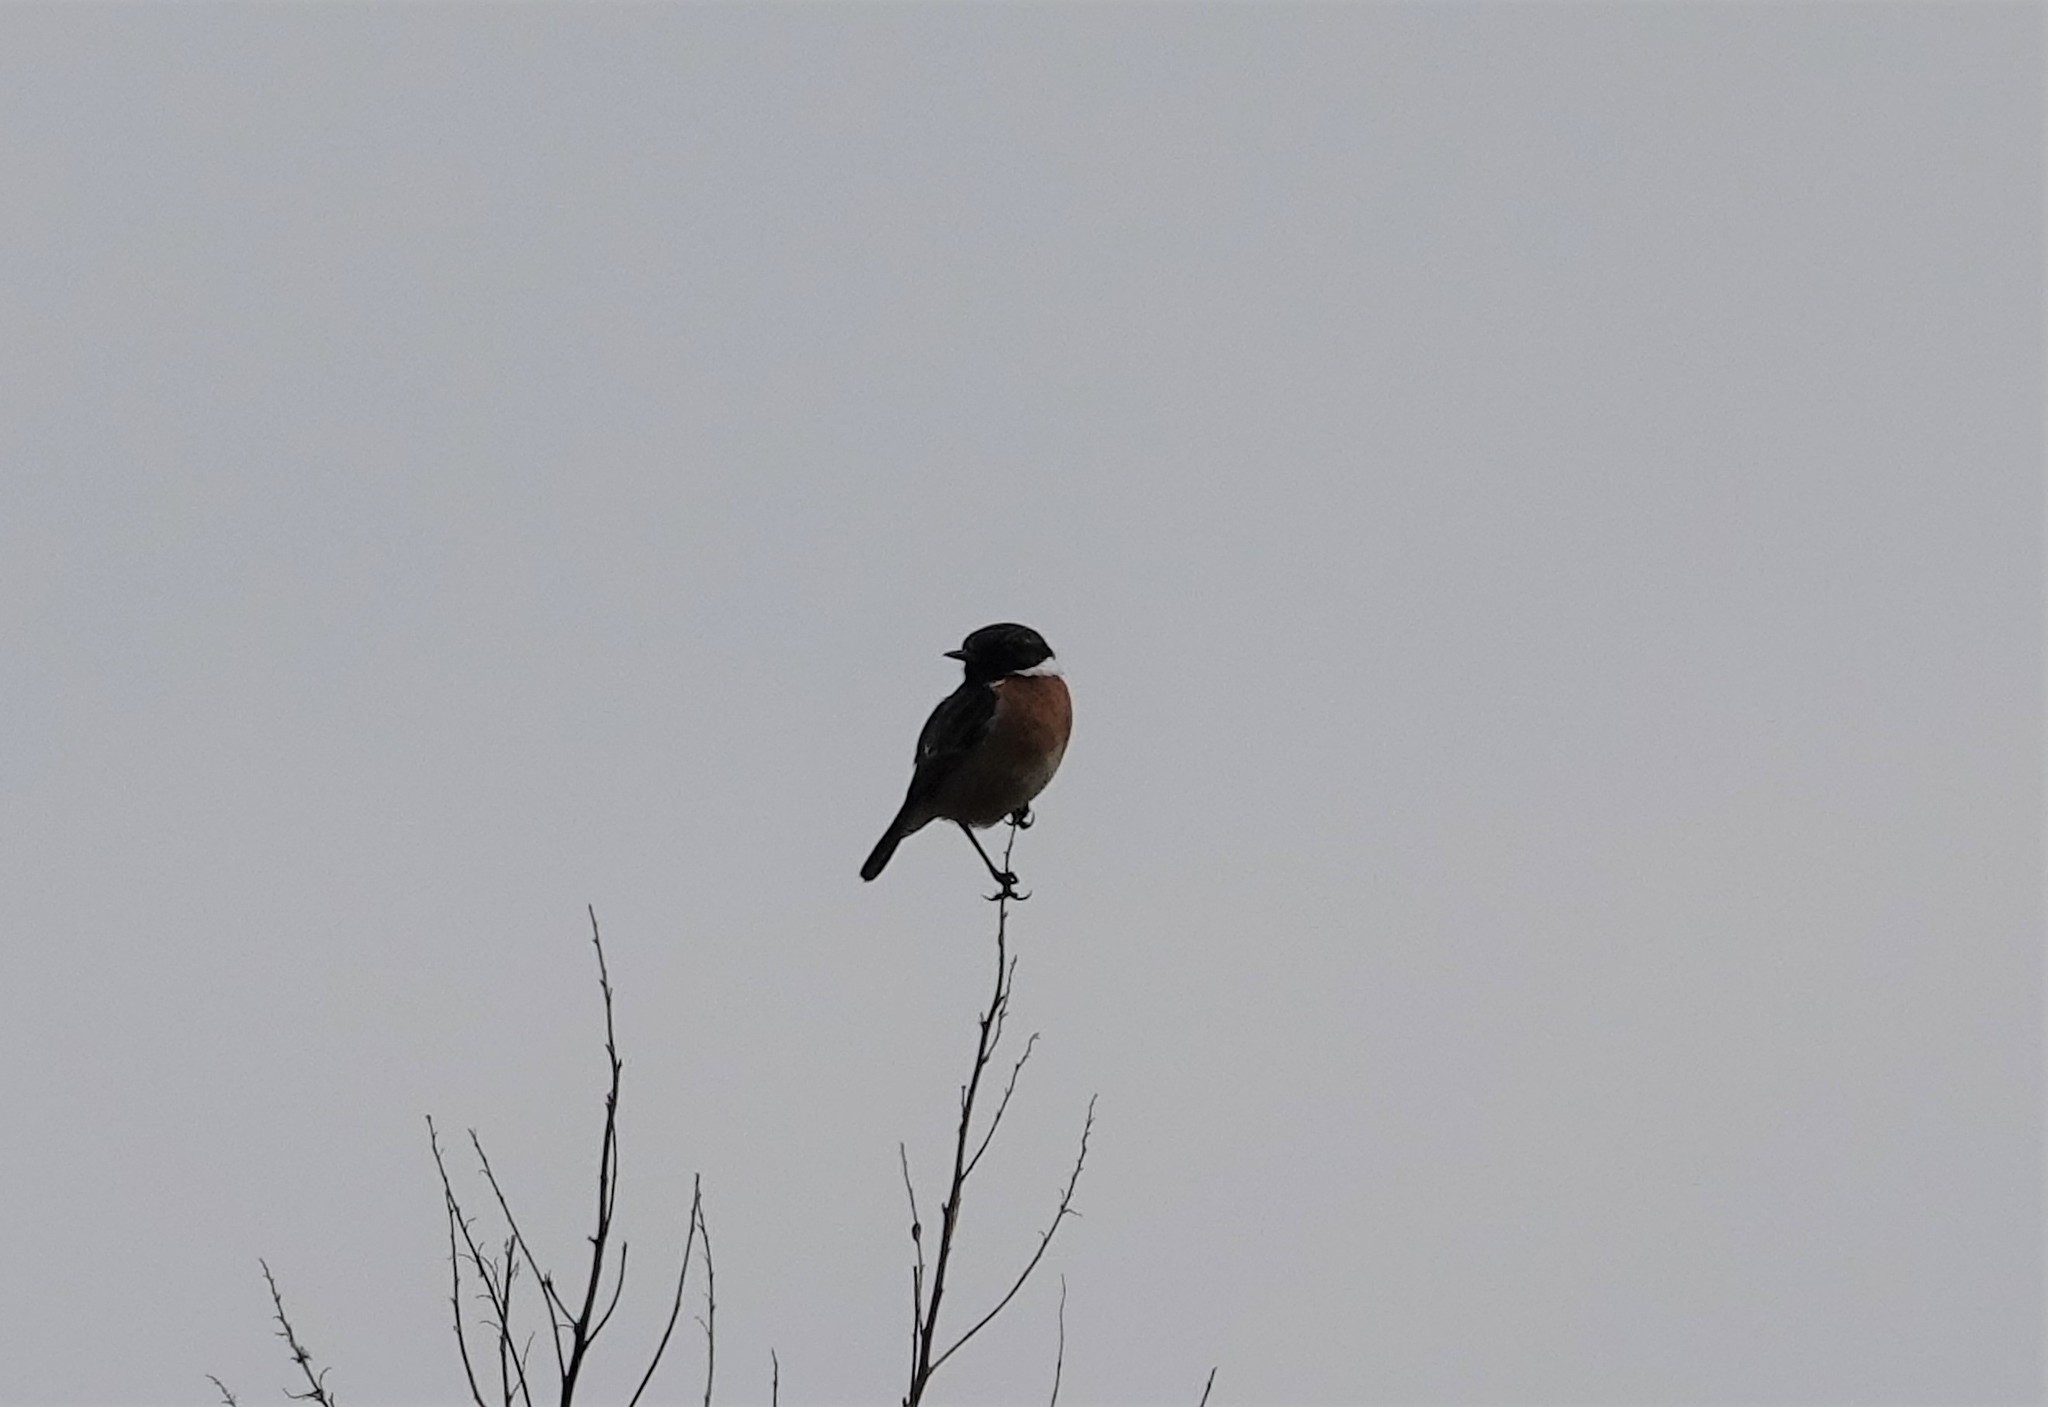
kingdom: Animalia
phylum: Chordata
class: Aves
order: Passeriformes
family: Muscicapidae
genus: Saxicola
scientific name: Saxicola rubicola
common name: European stonechat
